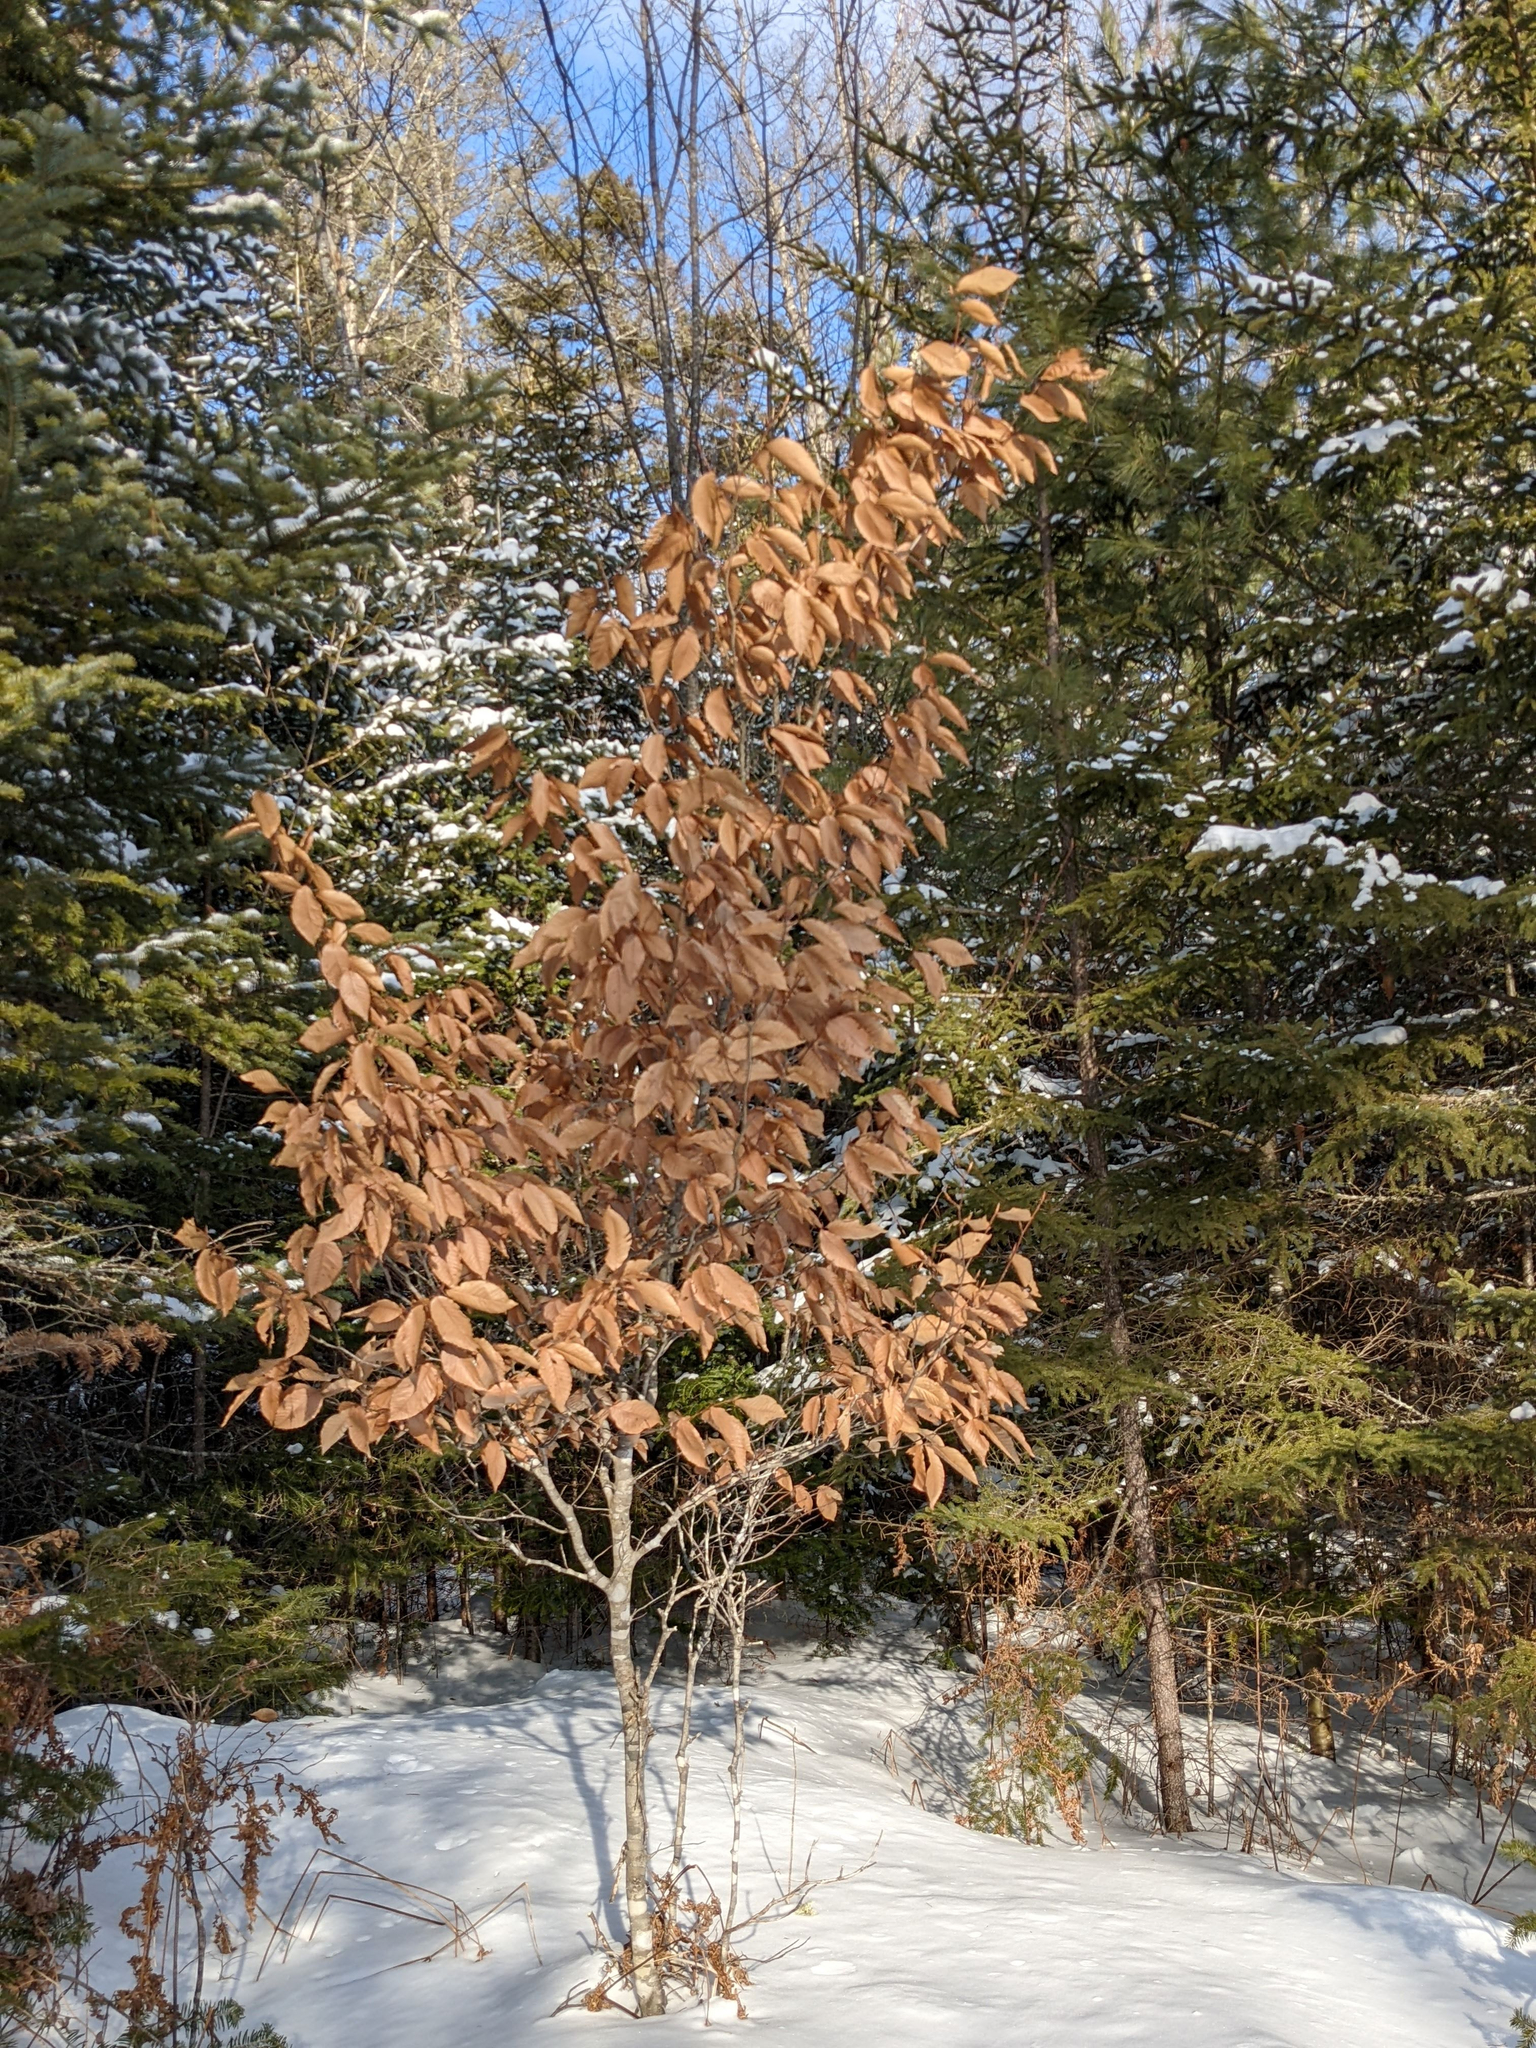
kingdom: Plantae
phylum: Tracheophyta
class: Magnoliopsida
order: Fagales
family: Fagaceae
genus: Fagus
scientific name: Fagus grandifolia
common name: American beech
